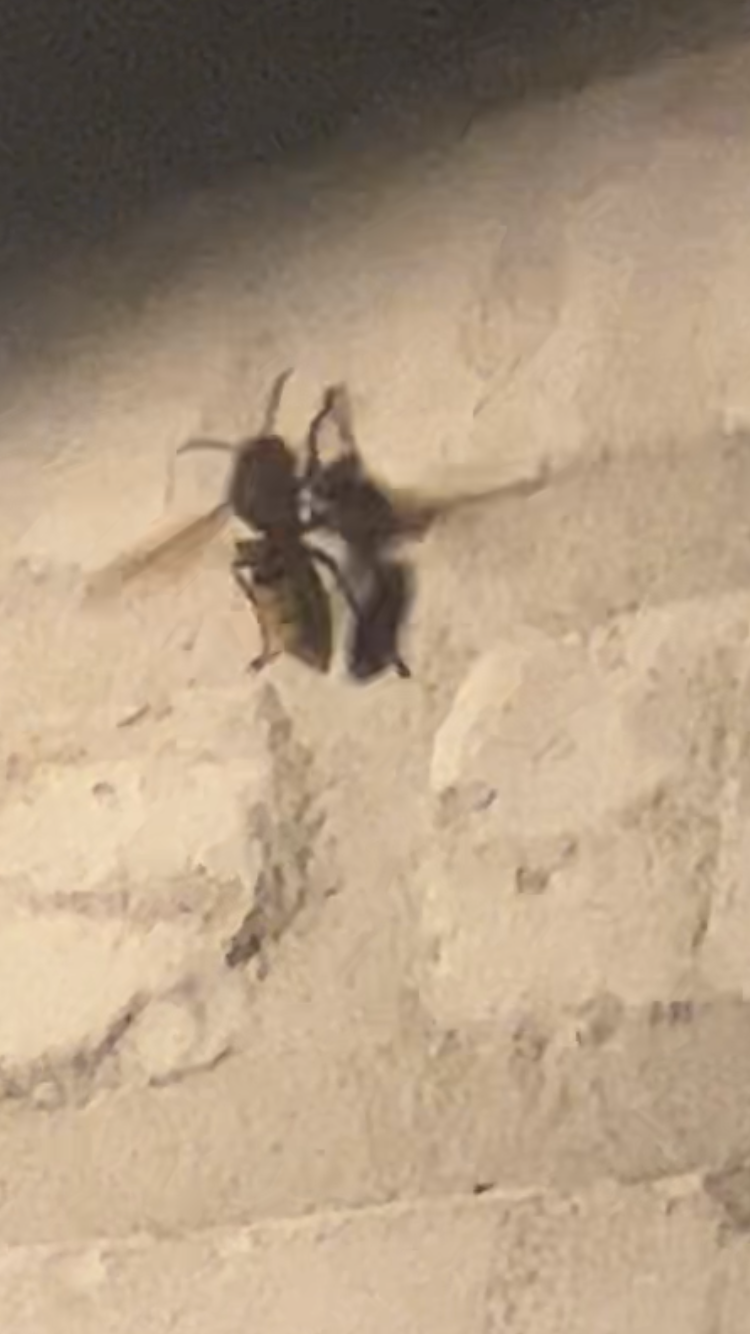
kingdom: Animalia
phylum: Arthropoda
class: Insecta
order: Hymenoptera
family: Vespidae
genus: Vespa
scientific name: Vespa crabro
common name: Hornet
